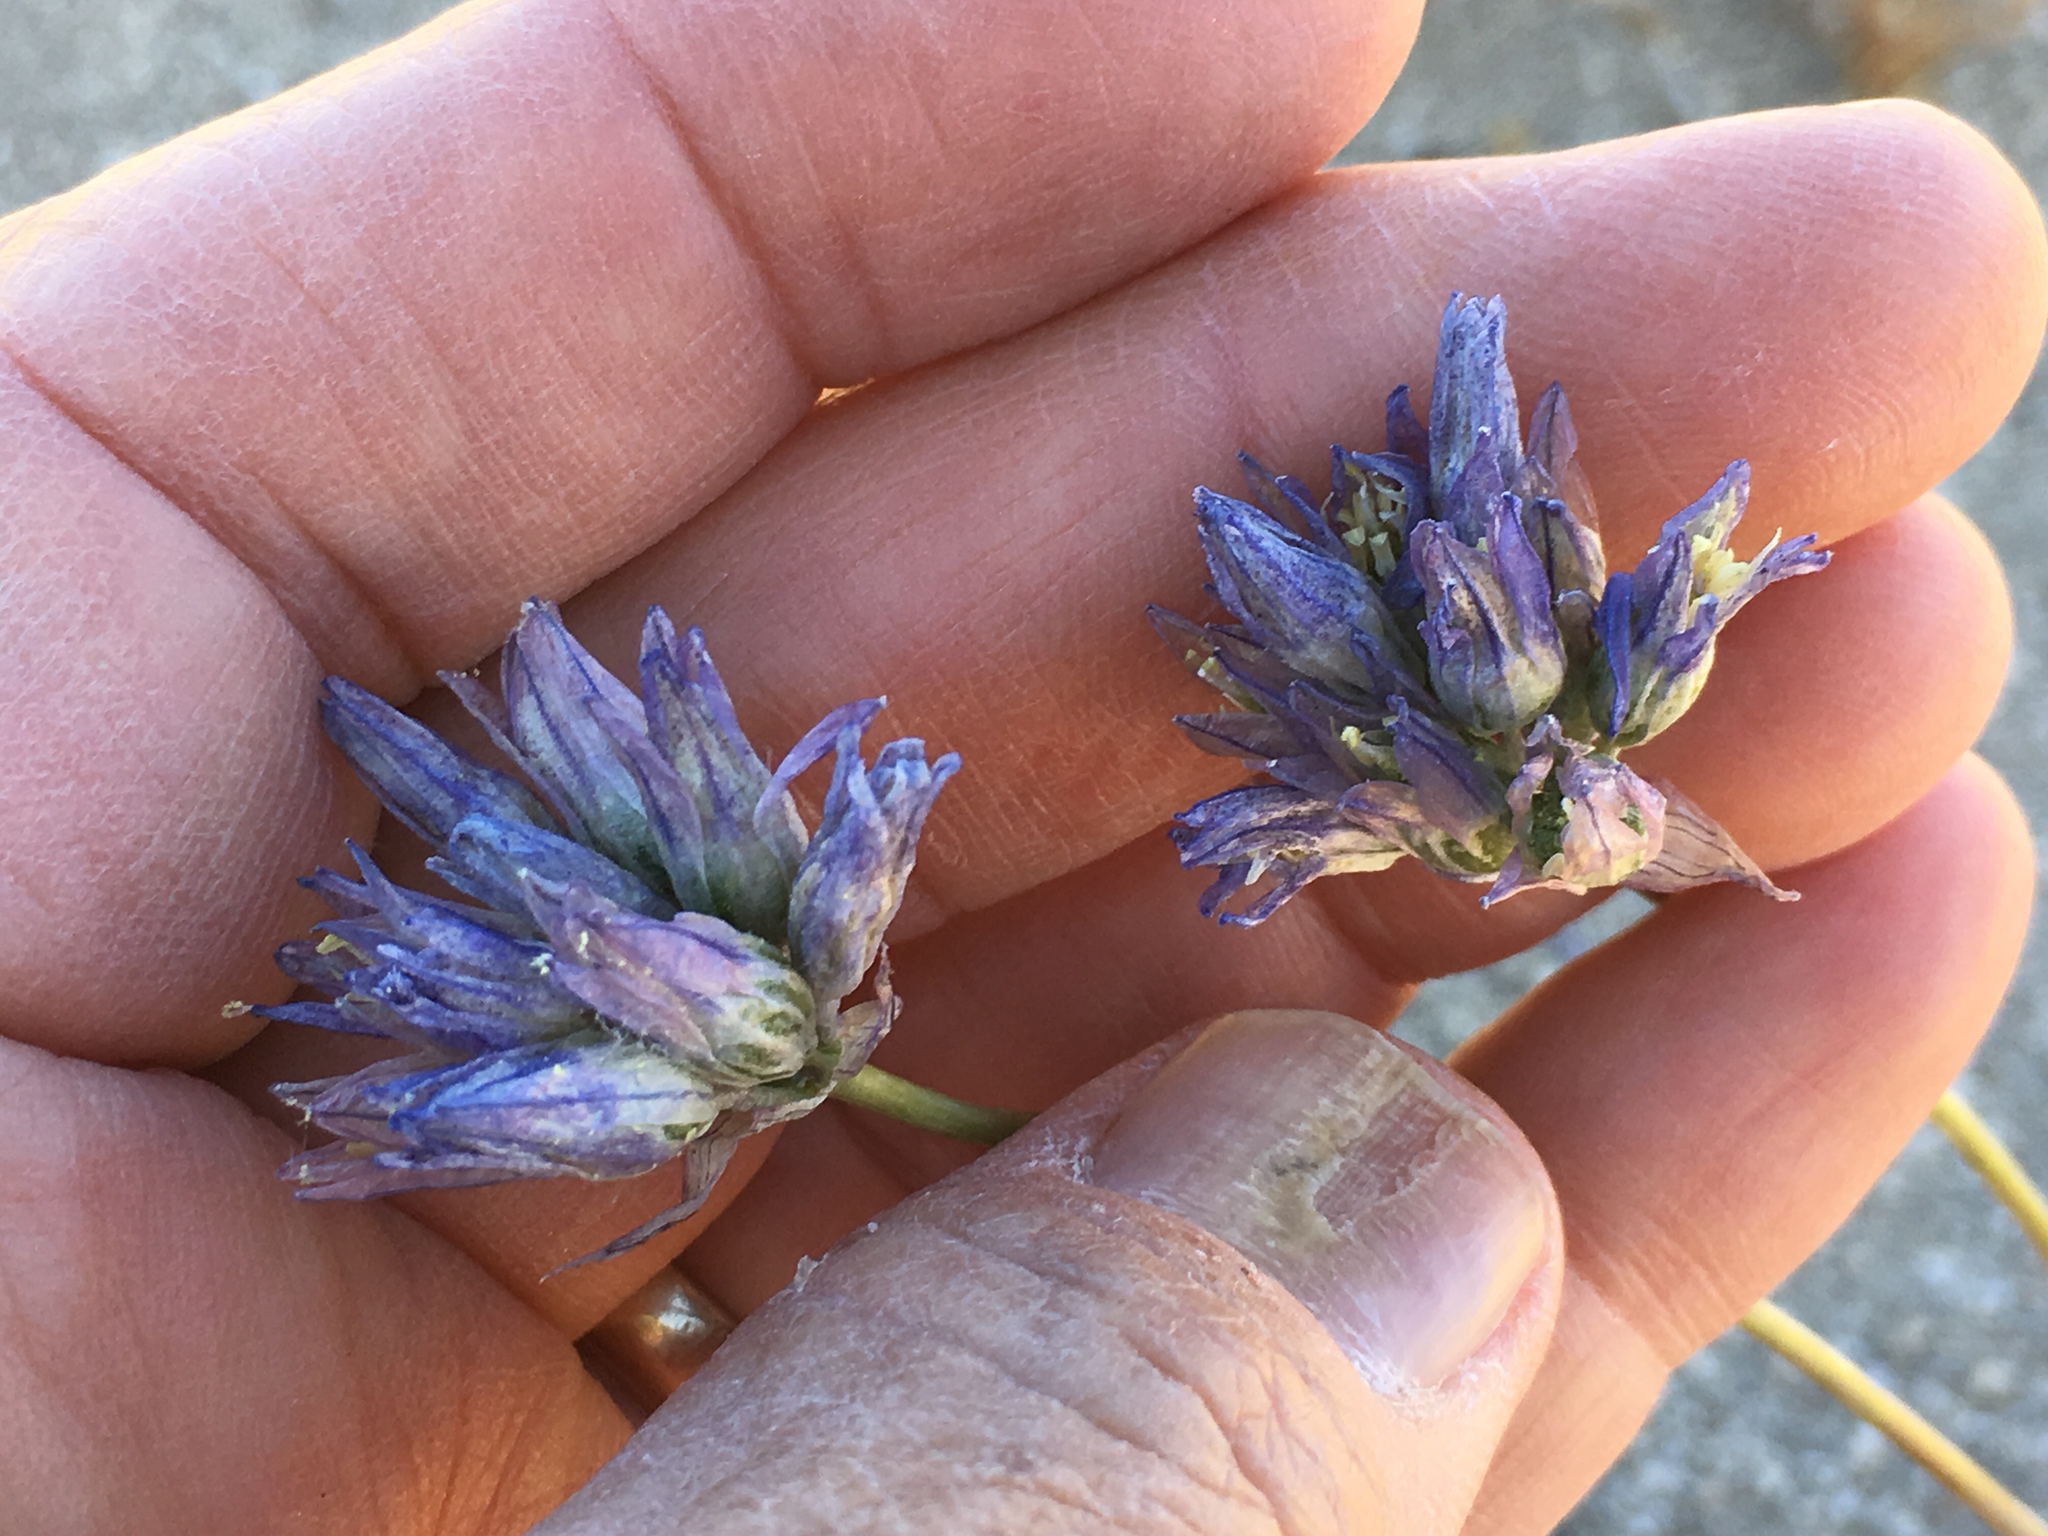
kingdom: Plantae
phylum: Tracheophyta
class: Liliopsida
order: Asparagales
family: Asparagaceae
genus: Dipterostemon
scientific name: Dipterostemon capitatus
